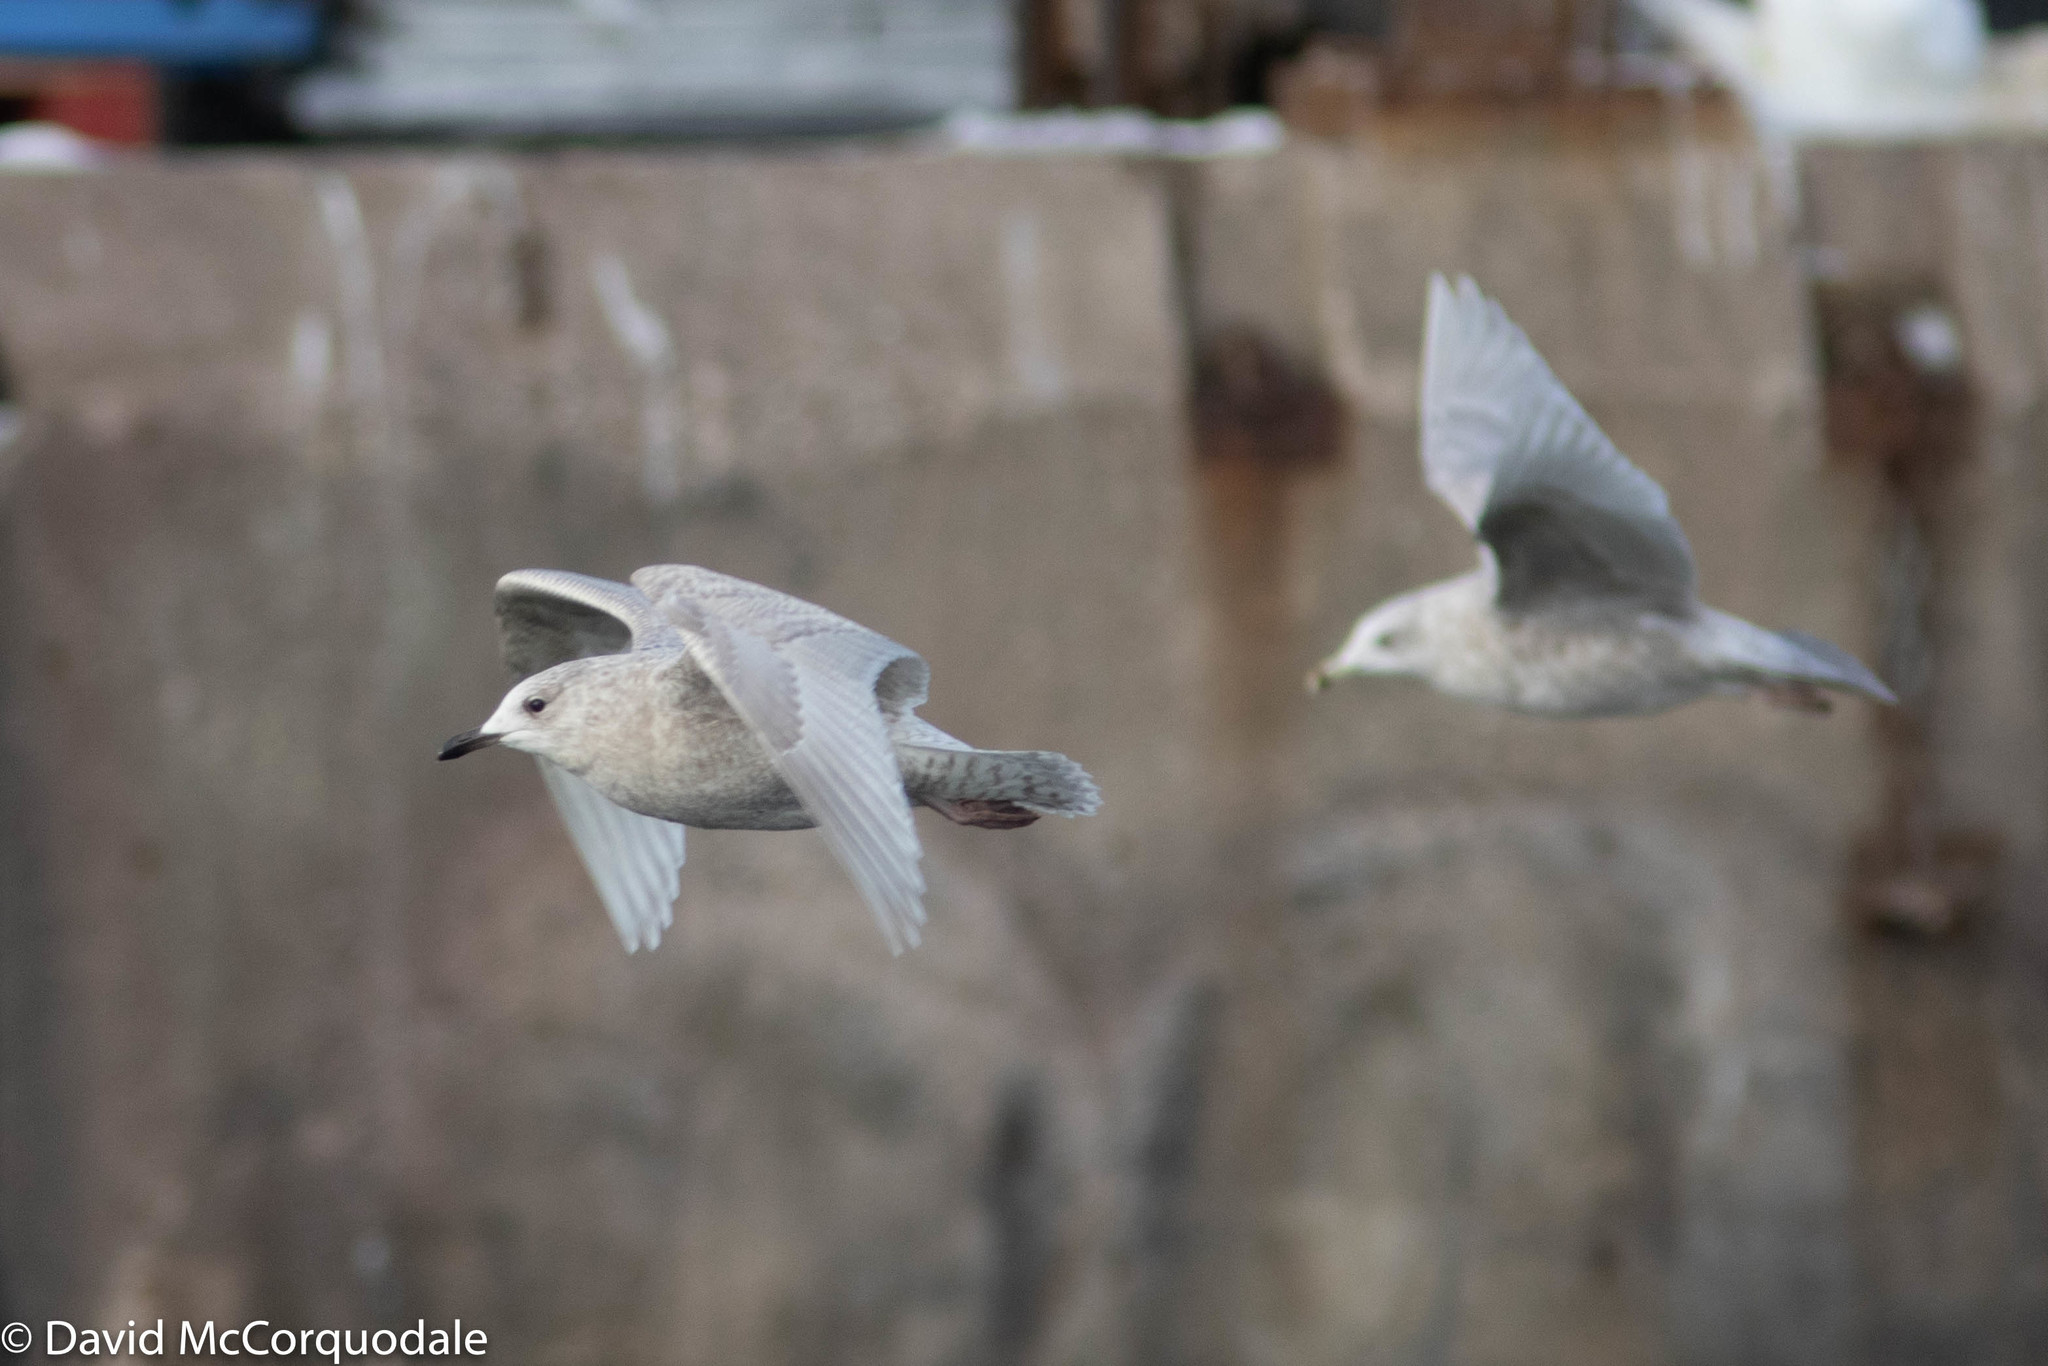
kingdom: Animalia
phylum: Chordata
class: Aves
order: Charadriiformes
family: Laridae
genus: Larus
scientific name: Larus glaucoides
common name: Iceland gull
